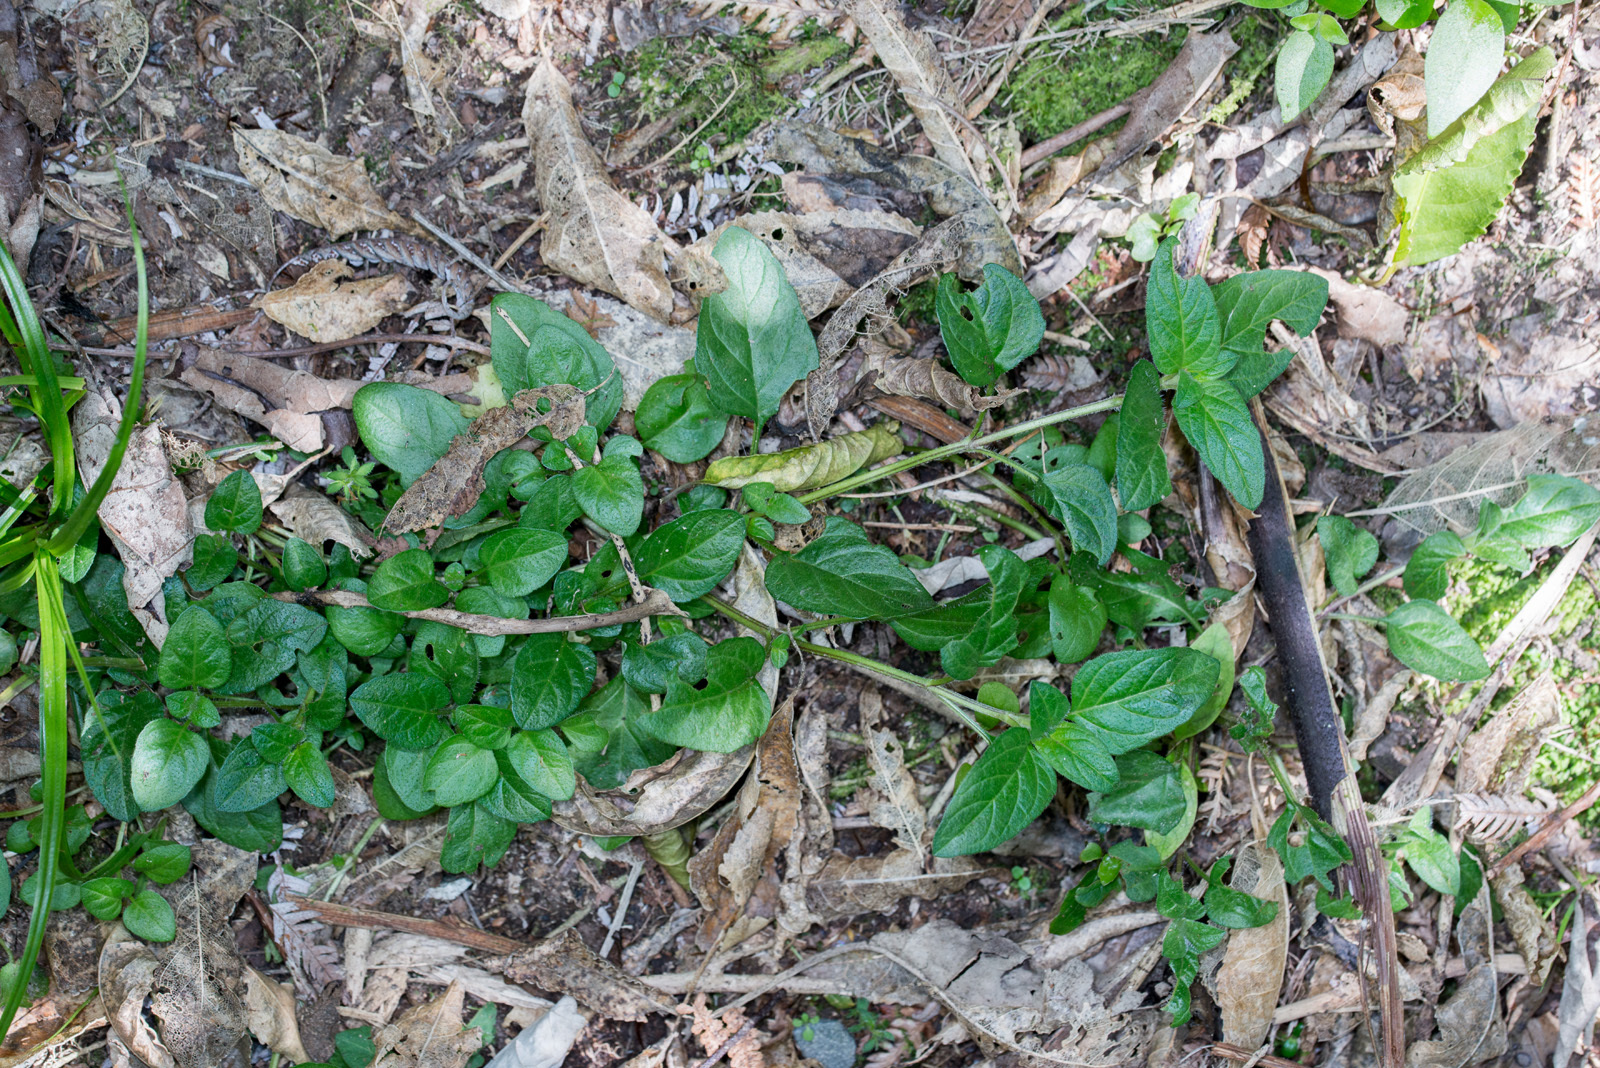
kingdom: Plantae
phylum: Tracheophyta
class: Magnoliopsida
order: Lamiales
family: Lamiaceae
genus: Prunella
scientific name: Prunella vulgaris
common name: Heal-all
